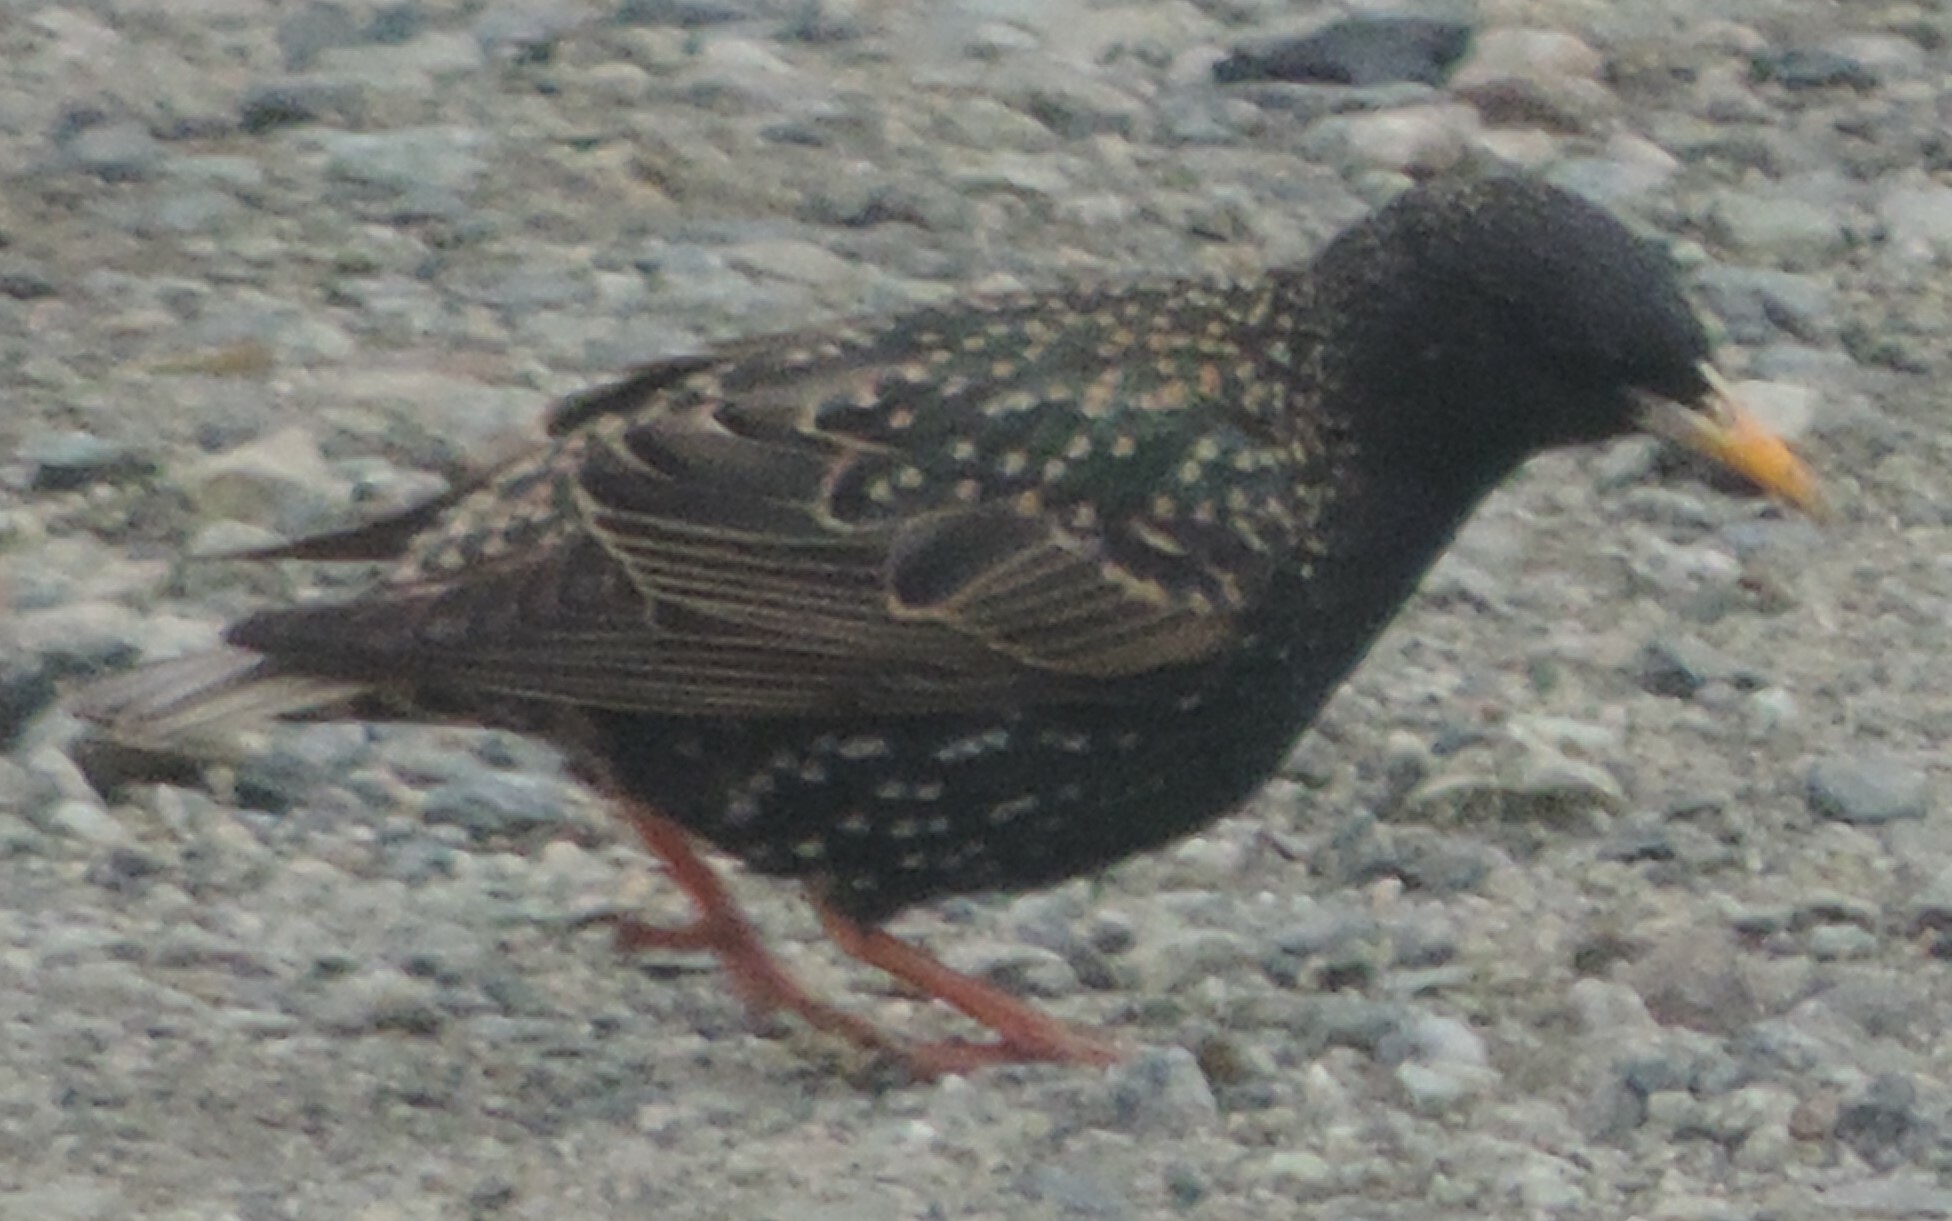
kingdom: Animalia
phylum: Chordata
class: Aves
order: Passeriformes
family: Sturnidae
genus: Sturnus
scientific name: Sturnus vulgaris
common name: Common starling
